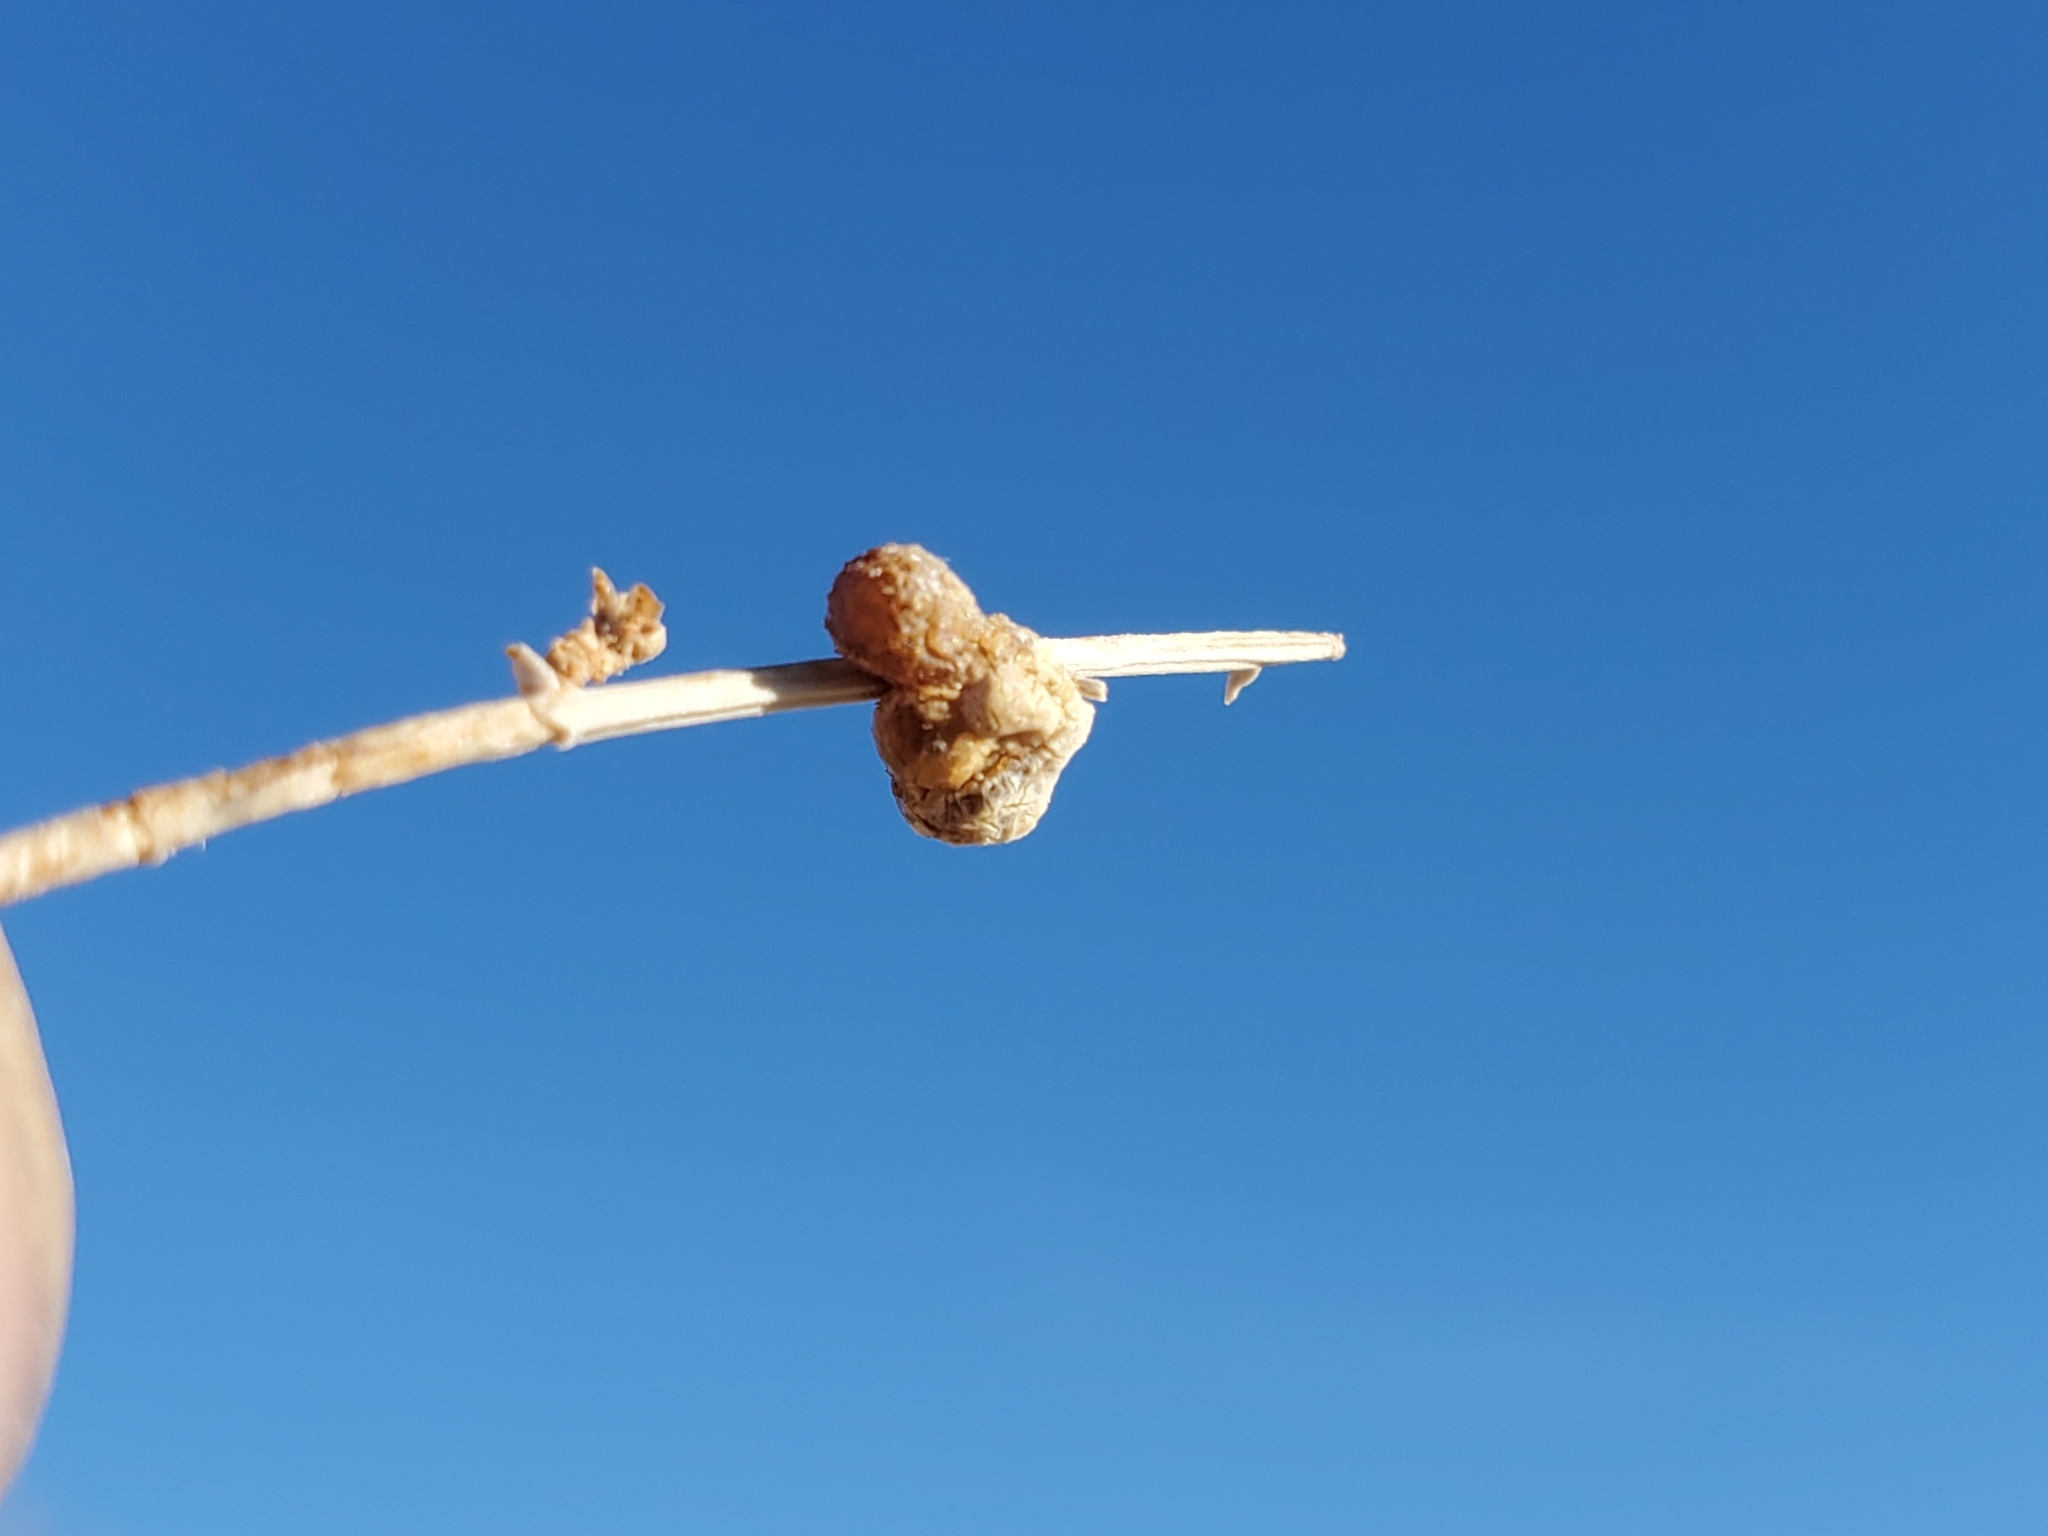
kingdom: Plantae
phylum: Tracheophyta
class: Magnoliopsida
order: Asterales
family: Asteraceae
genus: Stephanomeria
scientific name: Stephanomeria pauciflora
